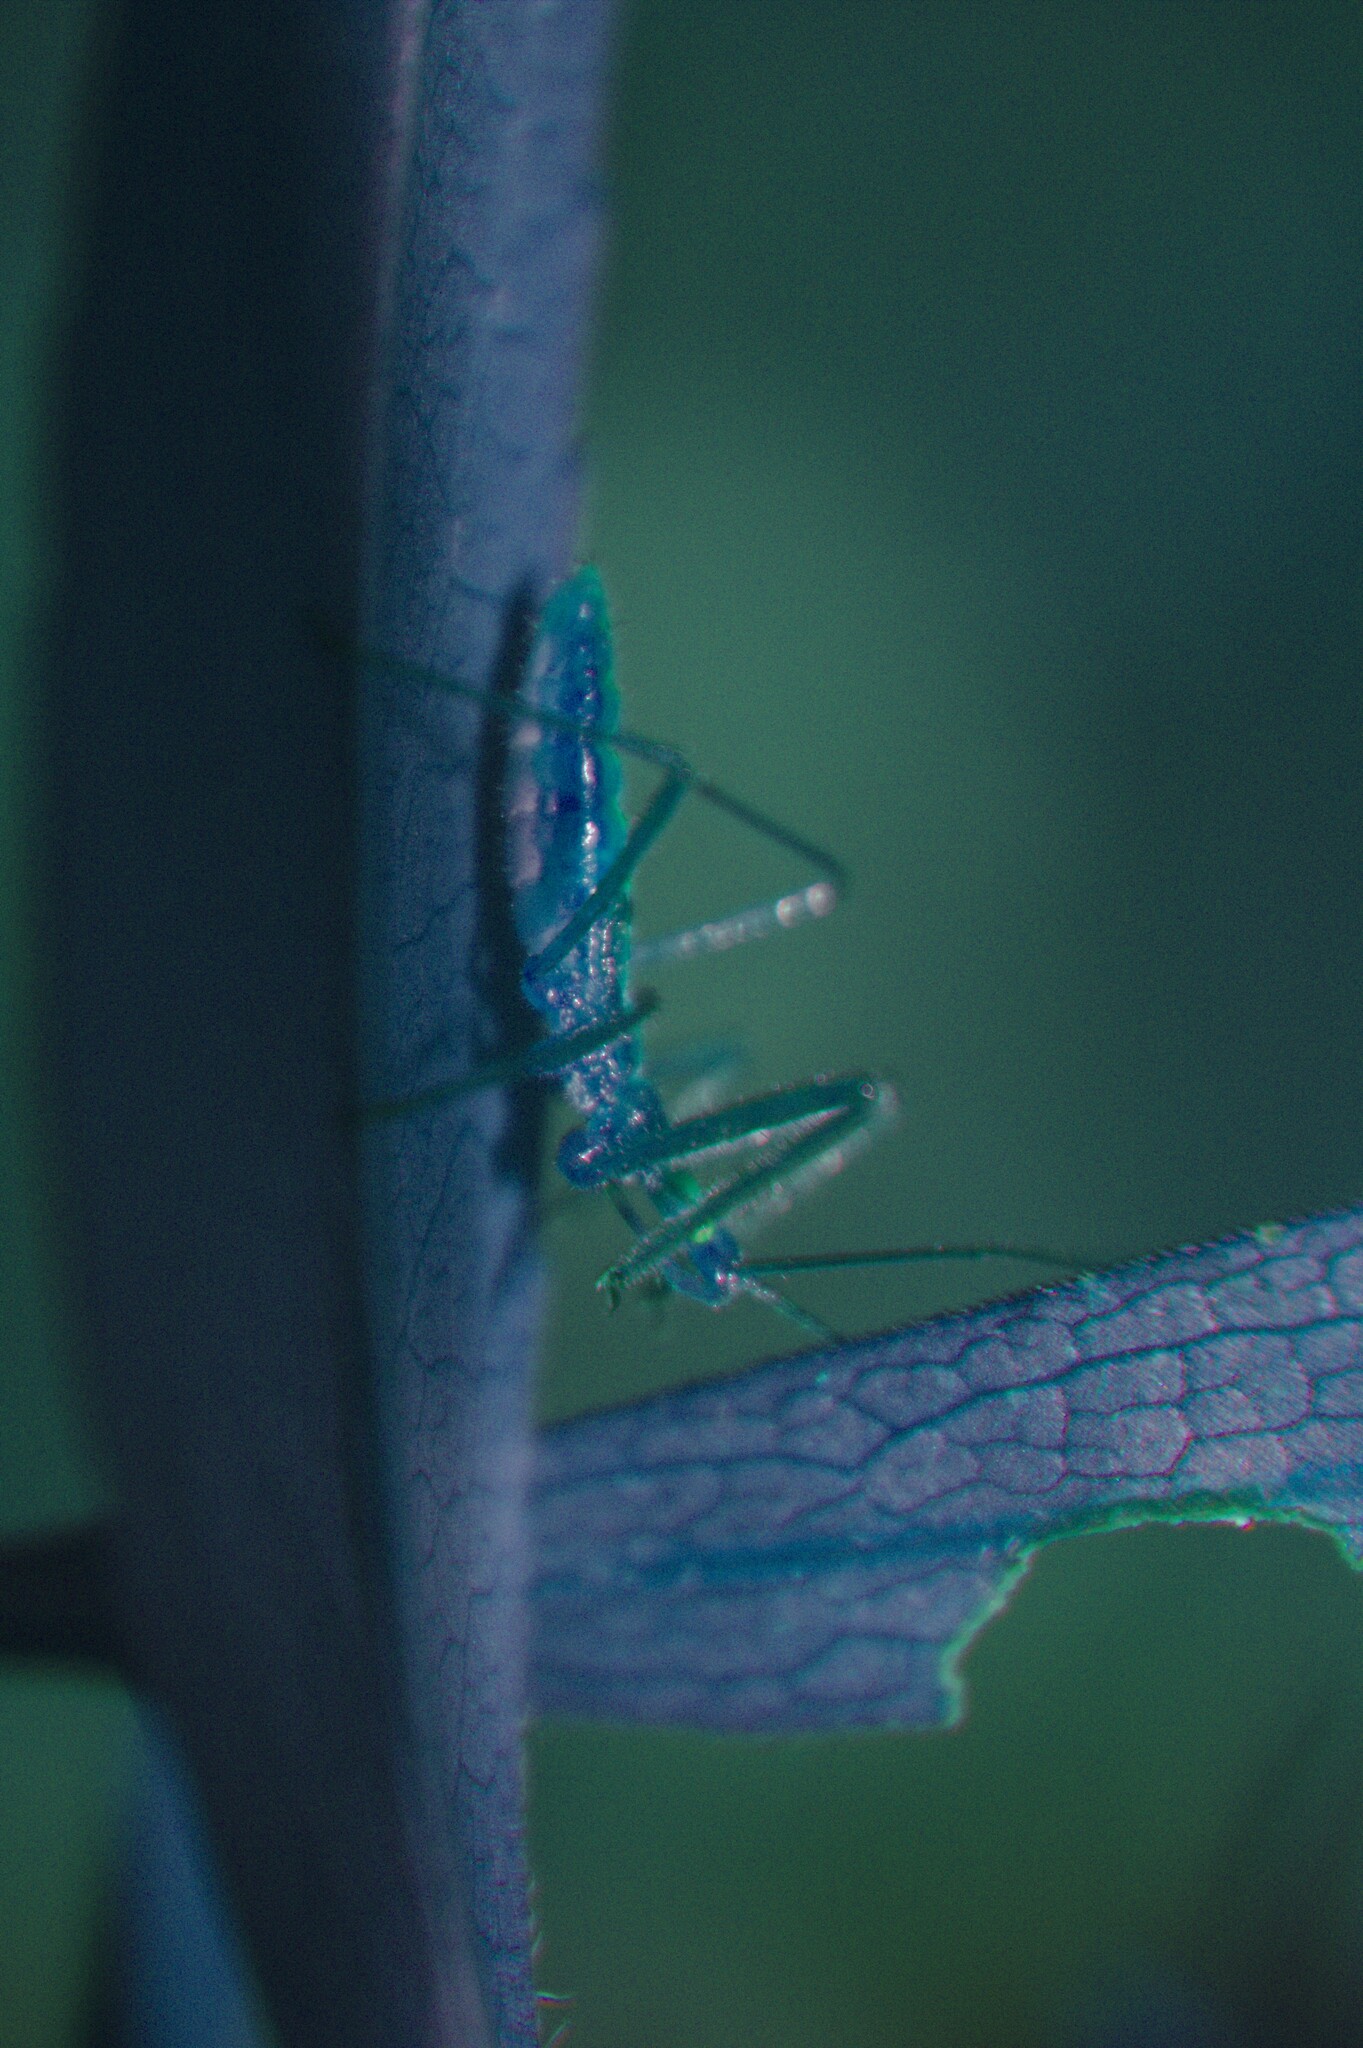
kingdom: Animalia
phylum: Arthropoda
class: Insecta
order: Hemiptera
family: Reduviidae
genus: Zelus
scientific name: Zelus luridus
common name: Pale green assassin bug
